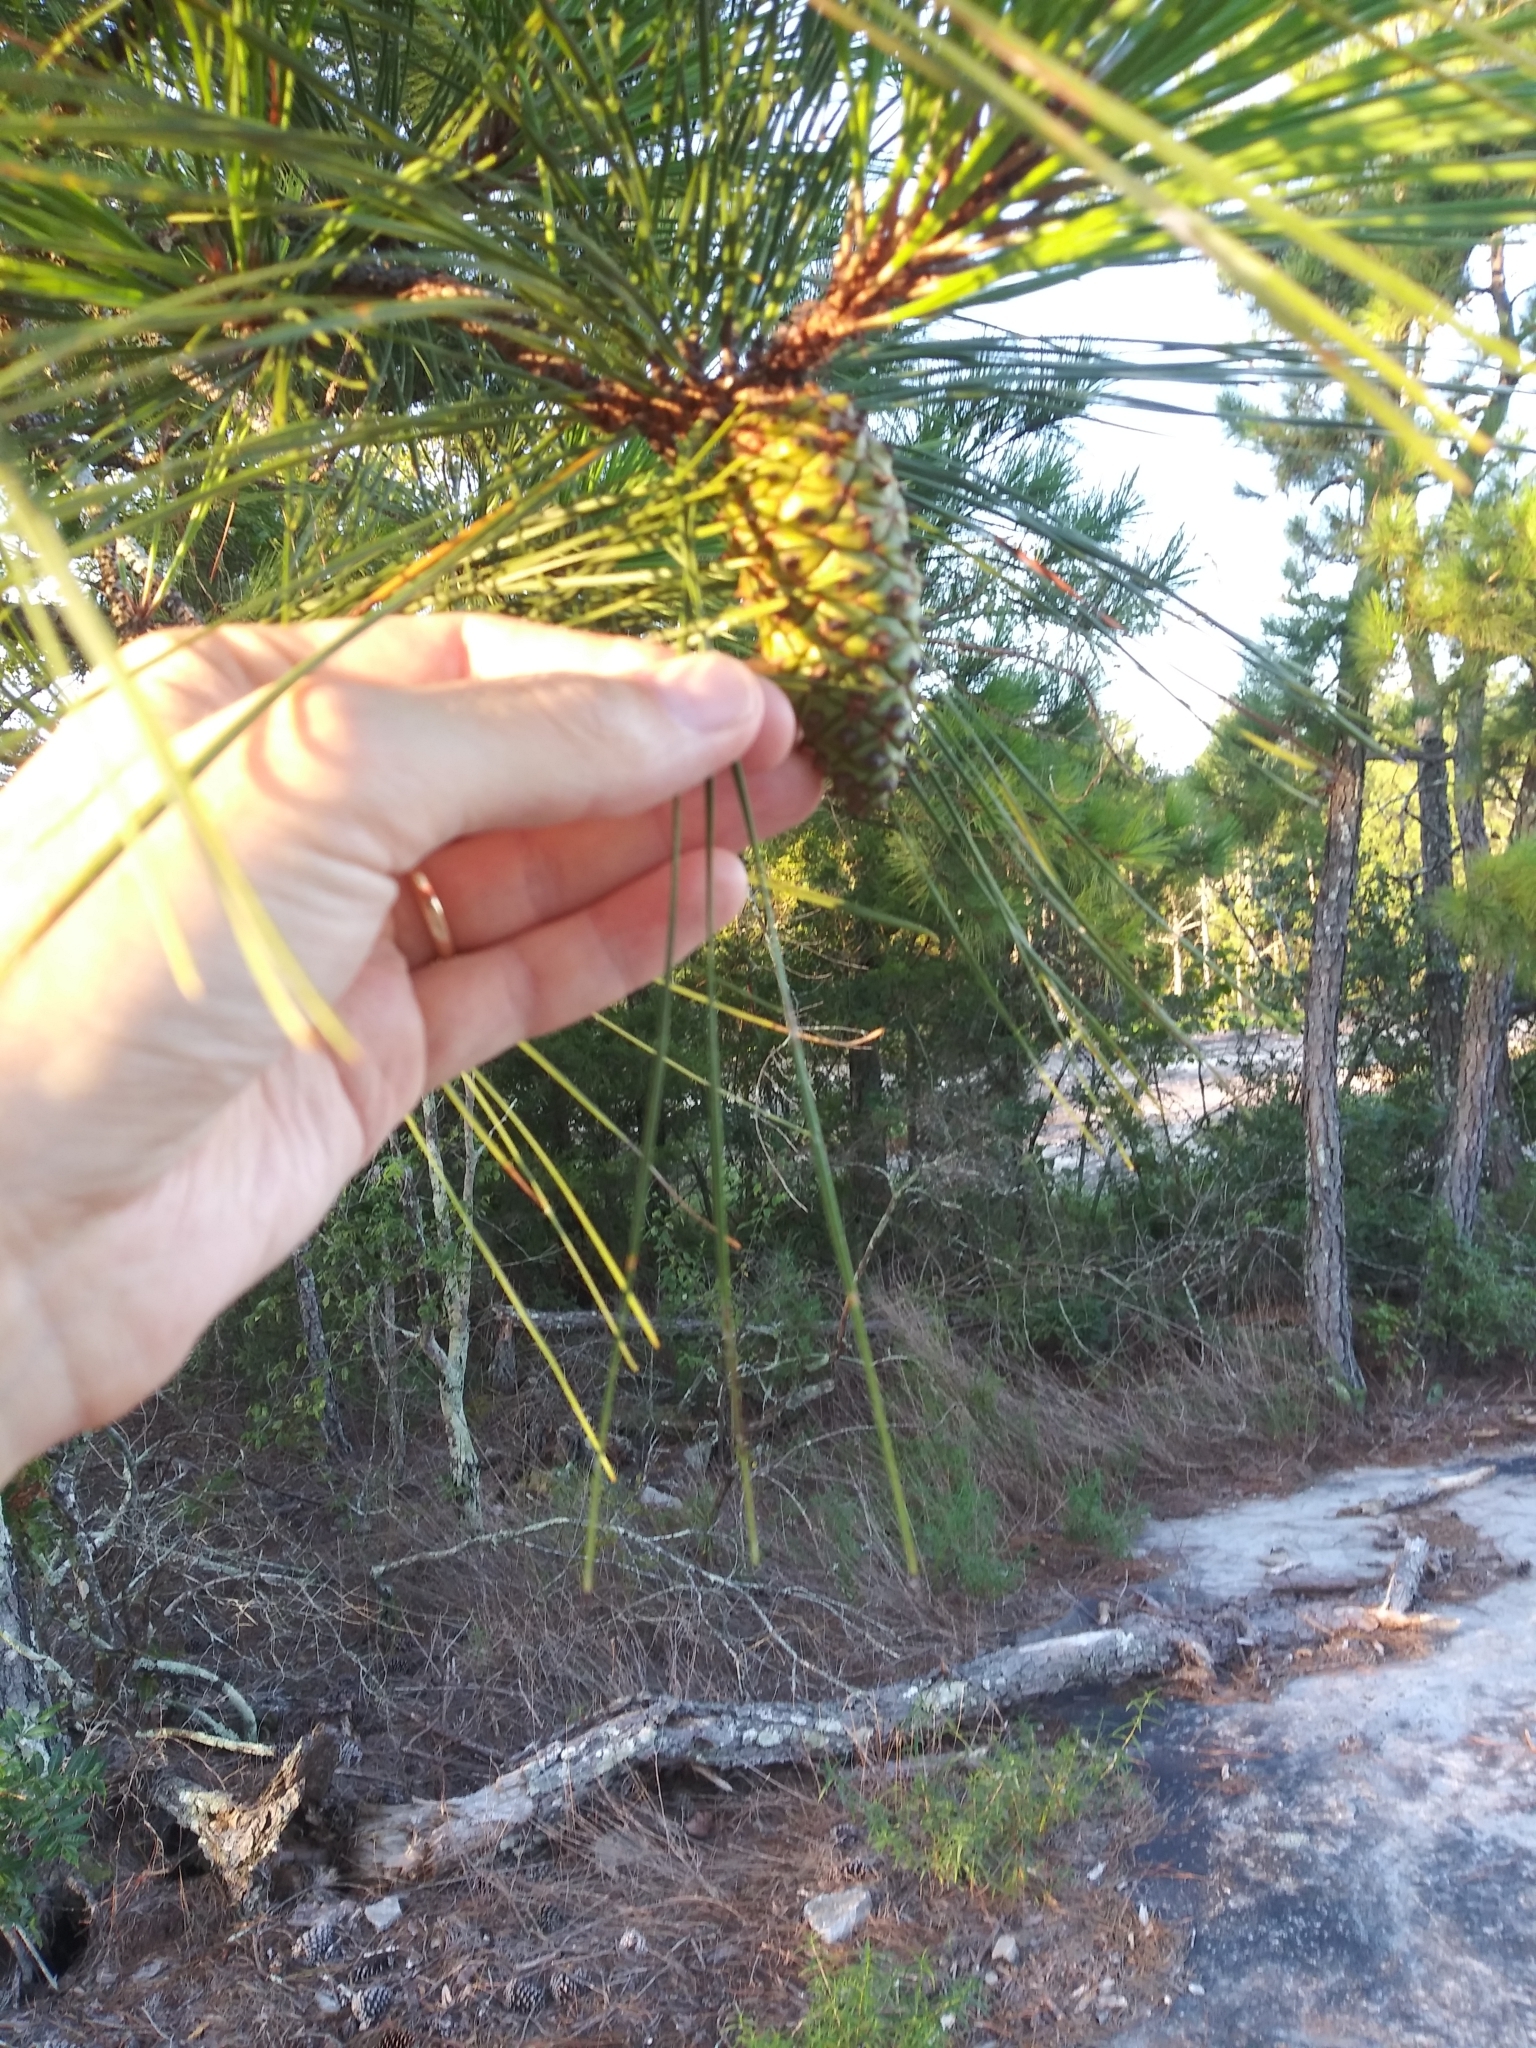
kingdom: Plantae
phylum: Tracheophyta
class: Pinopsida
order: Pinales
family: Pinaceae
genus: Pinus
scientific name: Pinus taeda
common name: Loblolly pine
